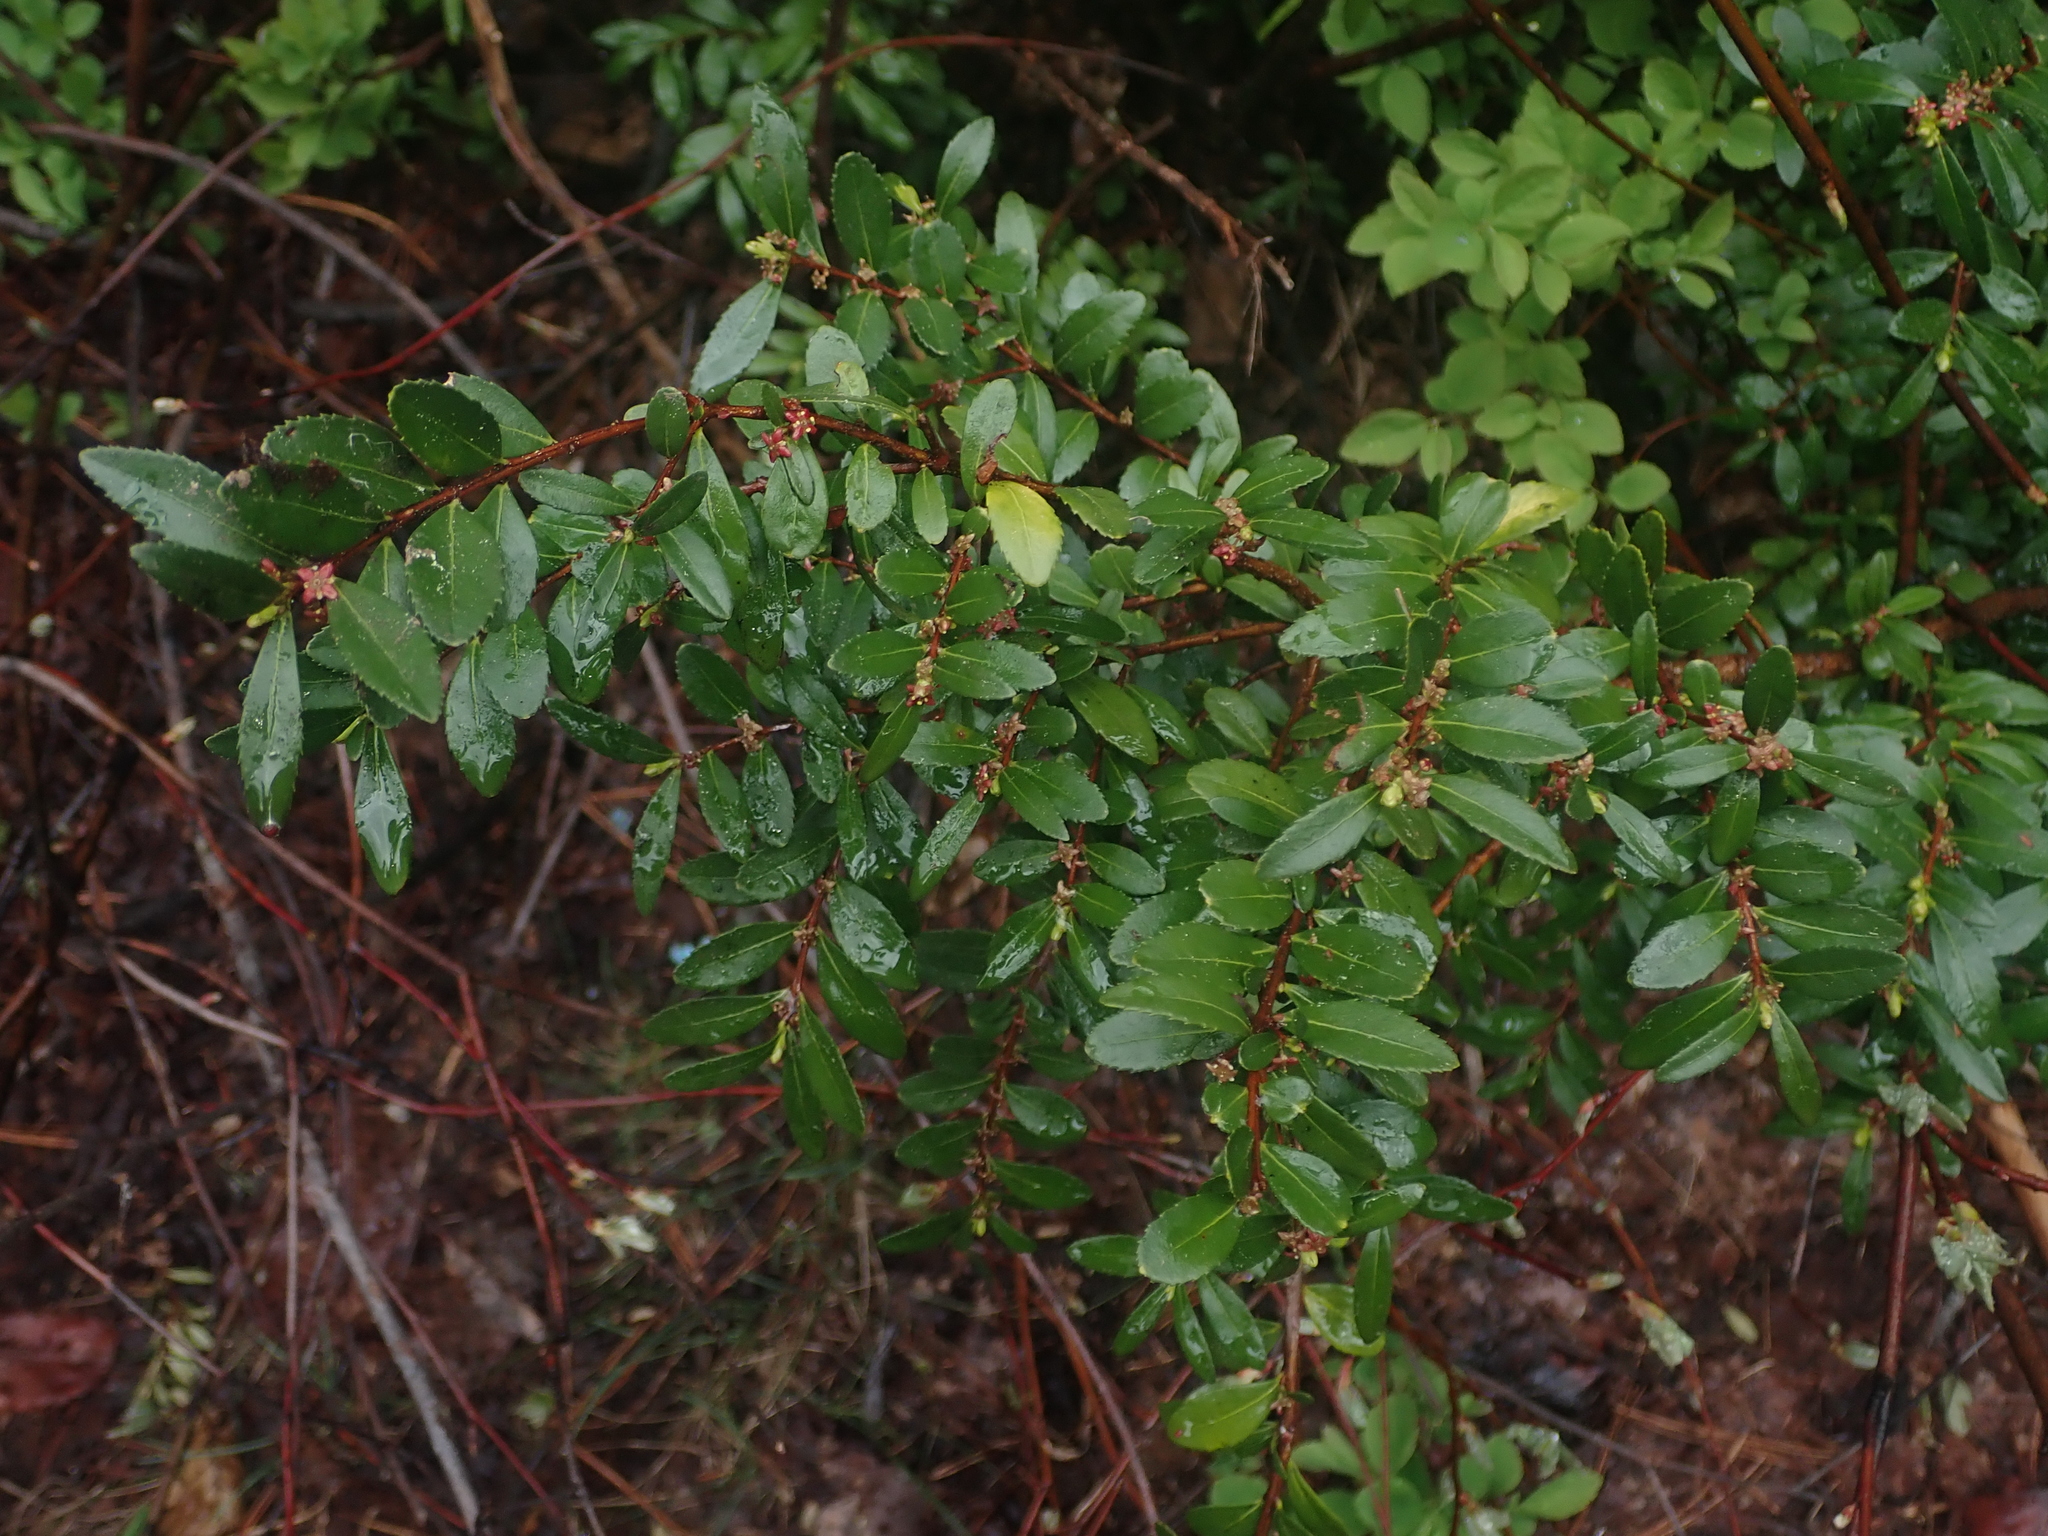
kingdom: Plantae
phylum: Tracheophyta
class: Magnoliopsida
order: Celastrales
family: Celastraceae
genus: Paxistima
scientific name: Paxistima myrsinites
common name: Mountain-lover
